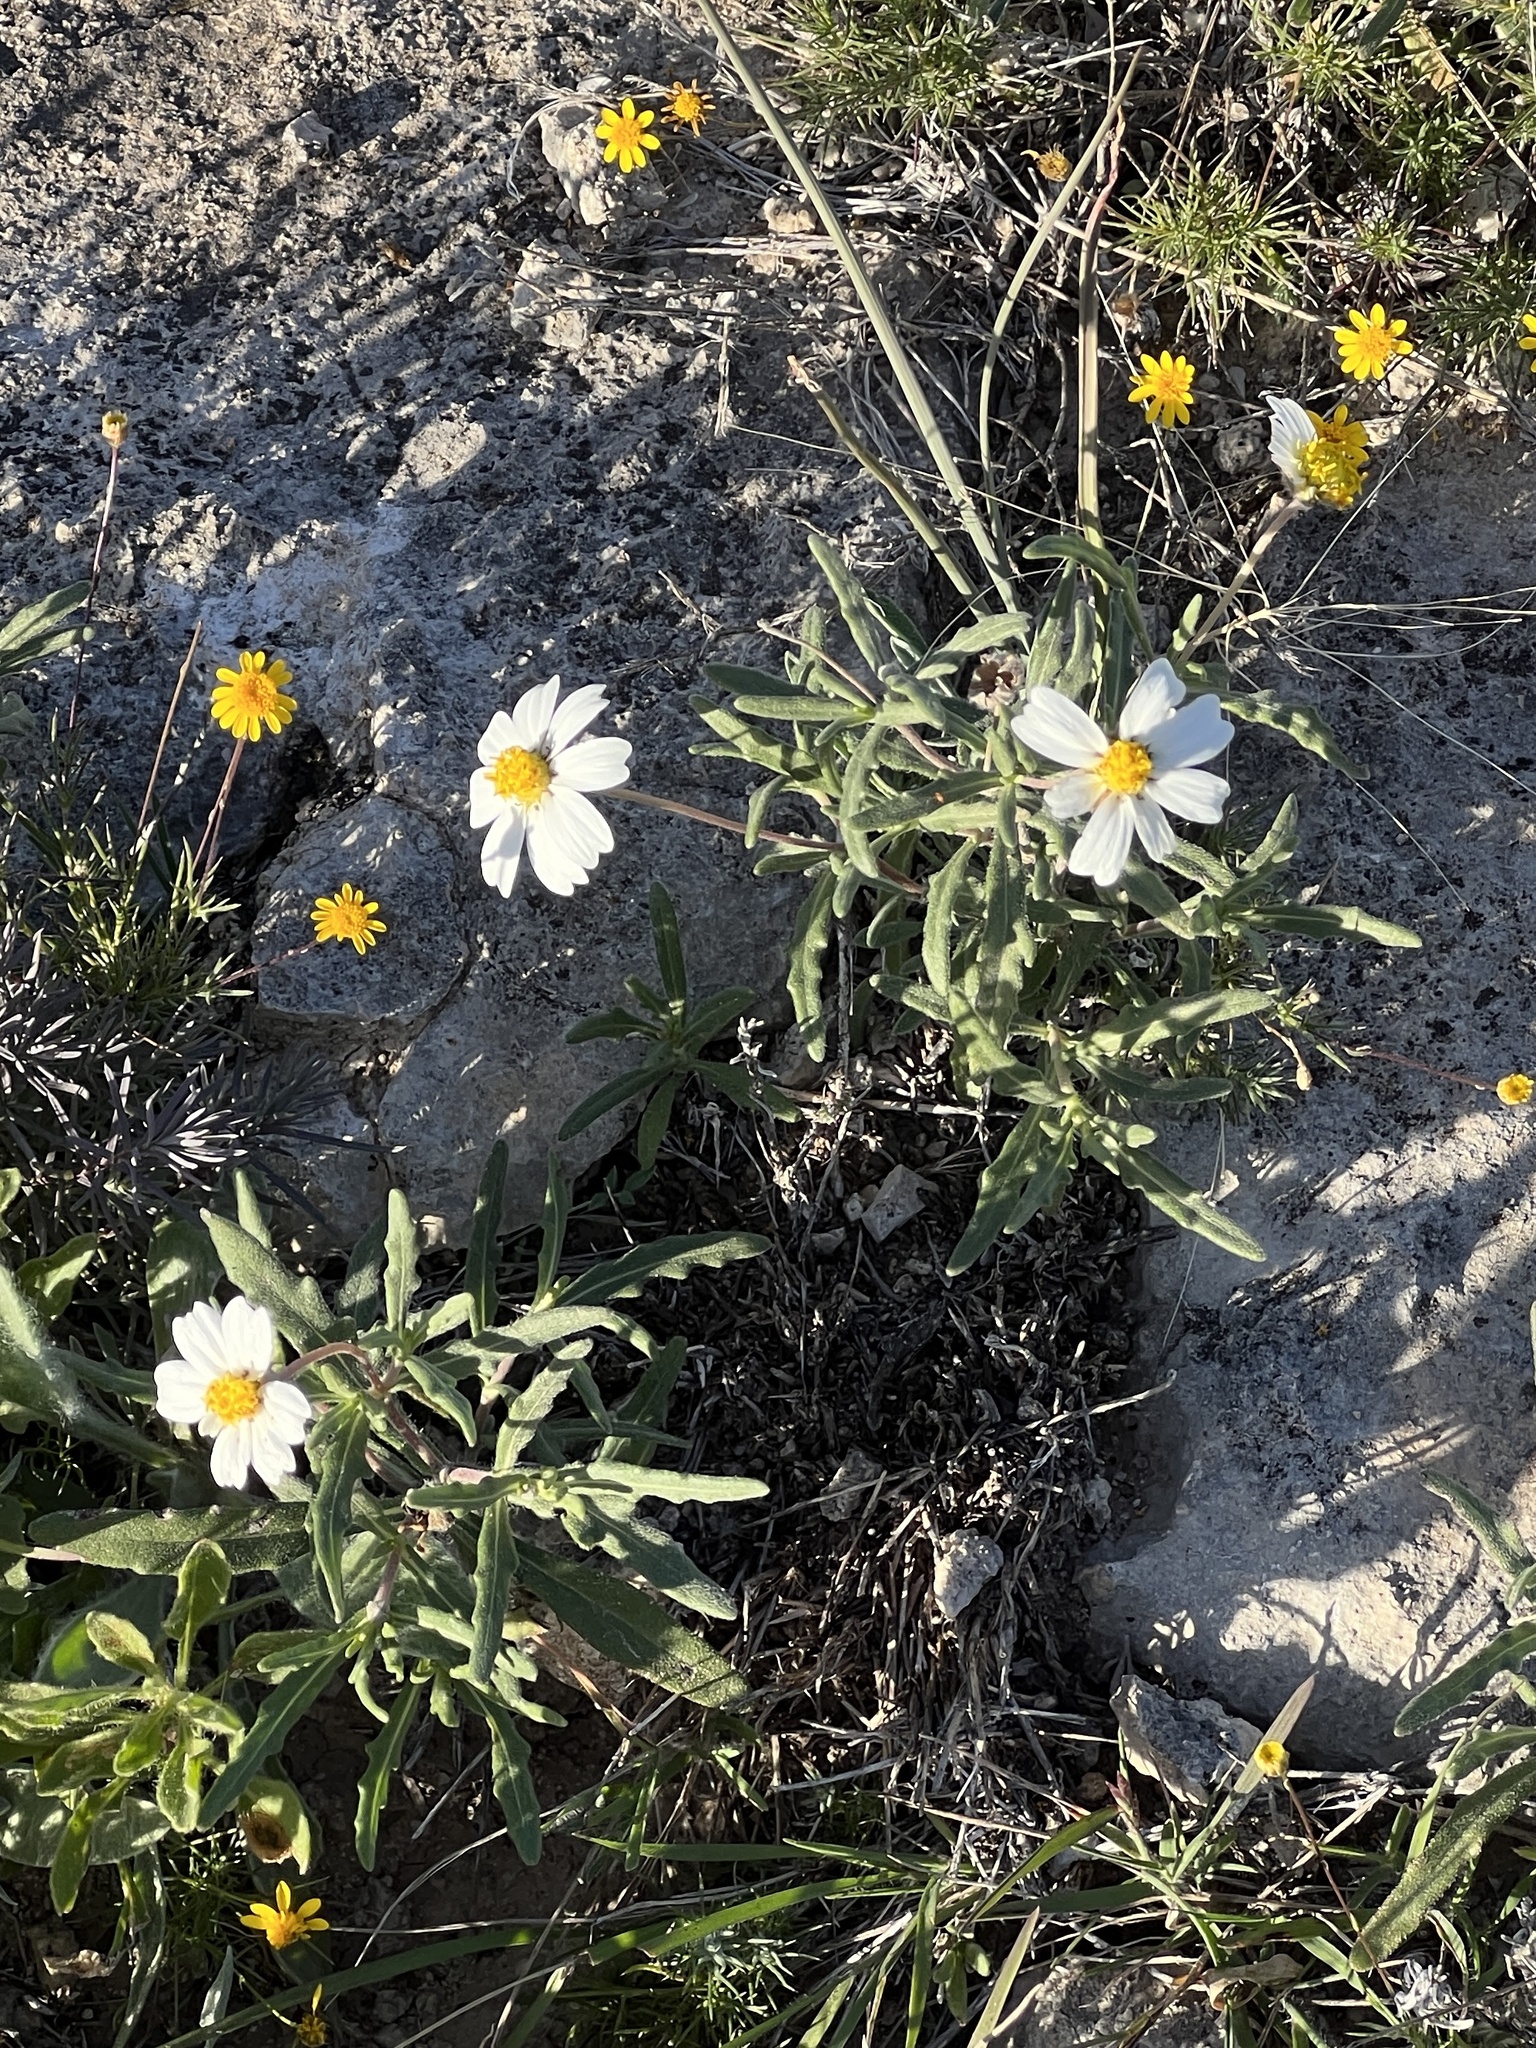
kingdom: Plantae
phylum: Tracheophyta
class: Magnoliopsida
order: Asterales
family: Asteraceae
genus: Melampodium
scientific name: Melampodium leucanthum
